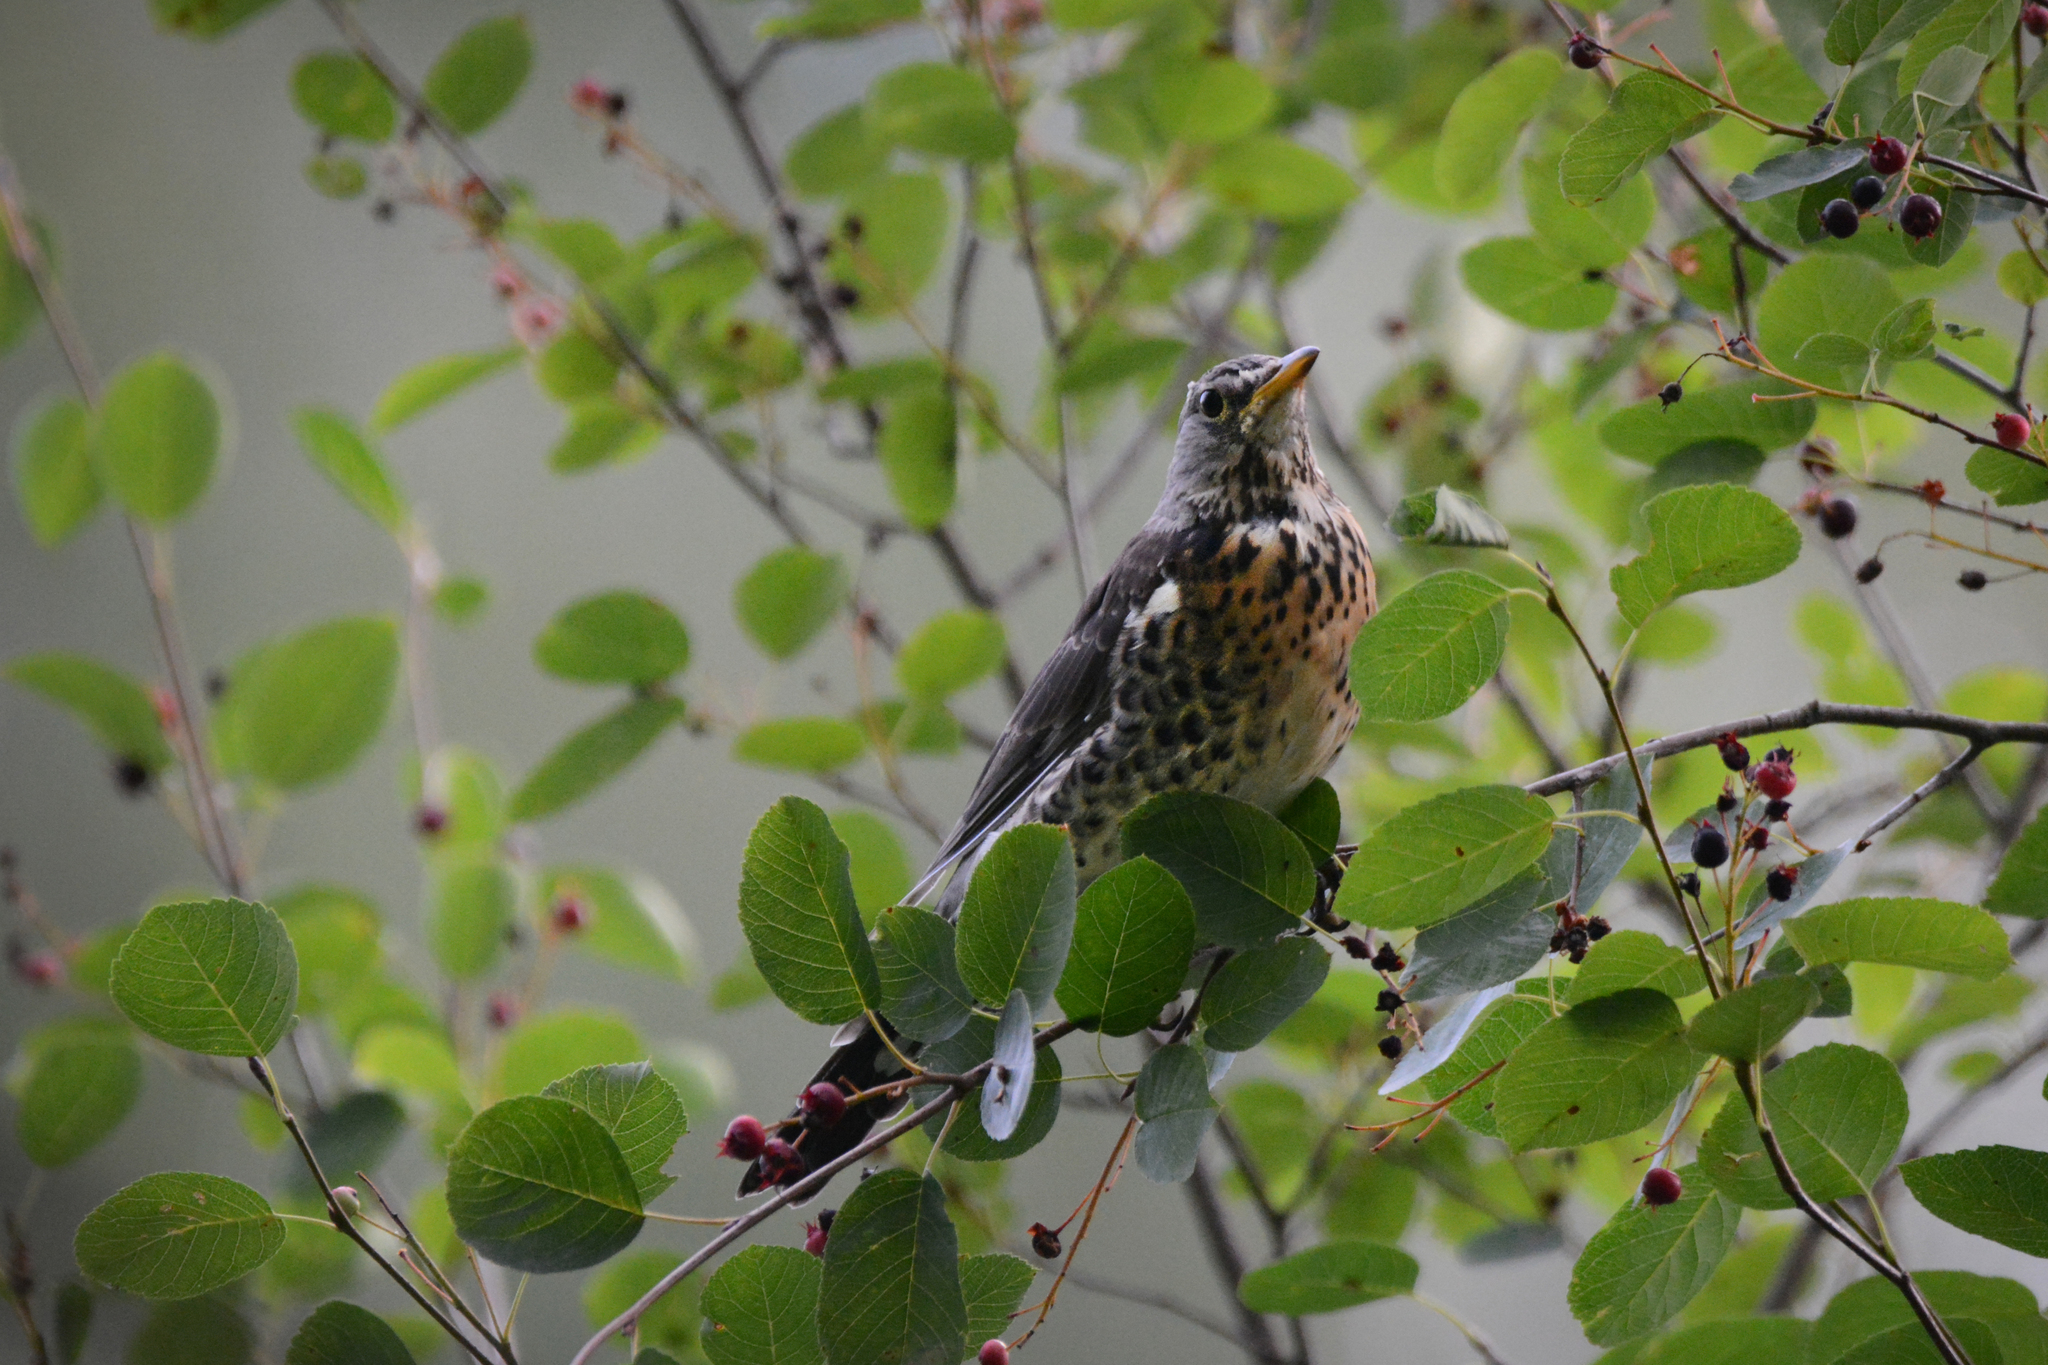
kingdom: Animalia
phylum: Chordata
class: Aves
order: Passeriformes
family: Turdidae
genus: Turdus
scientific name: Turdus pilaris
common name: Fieldfare
